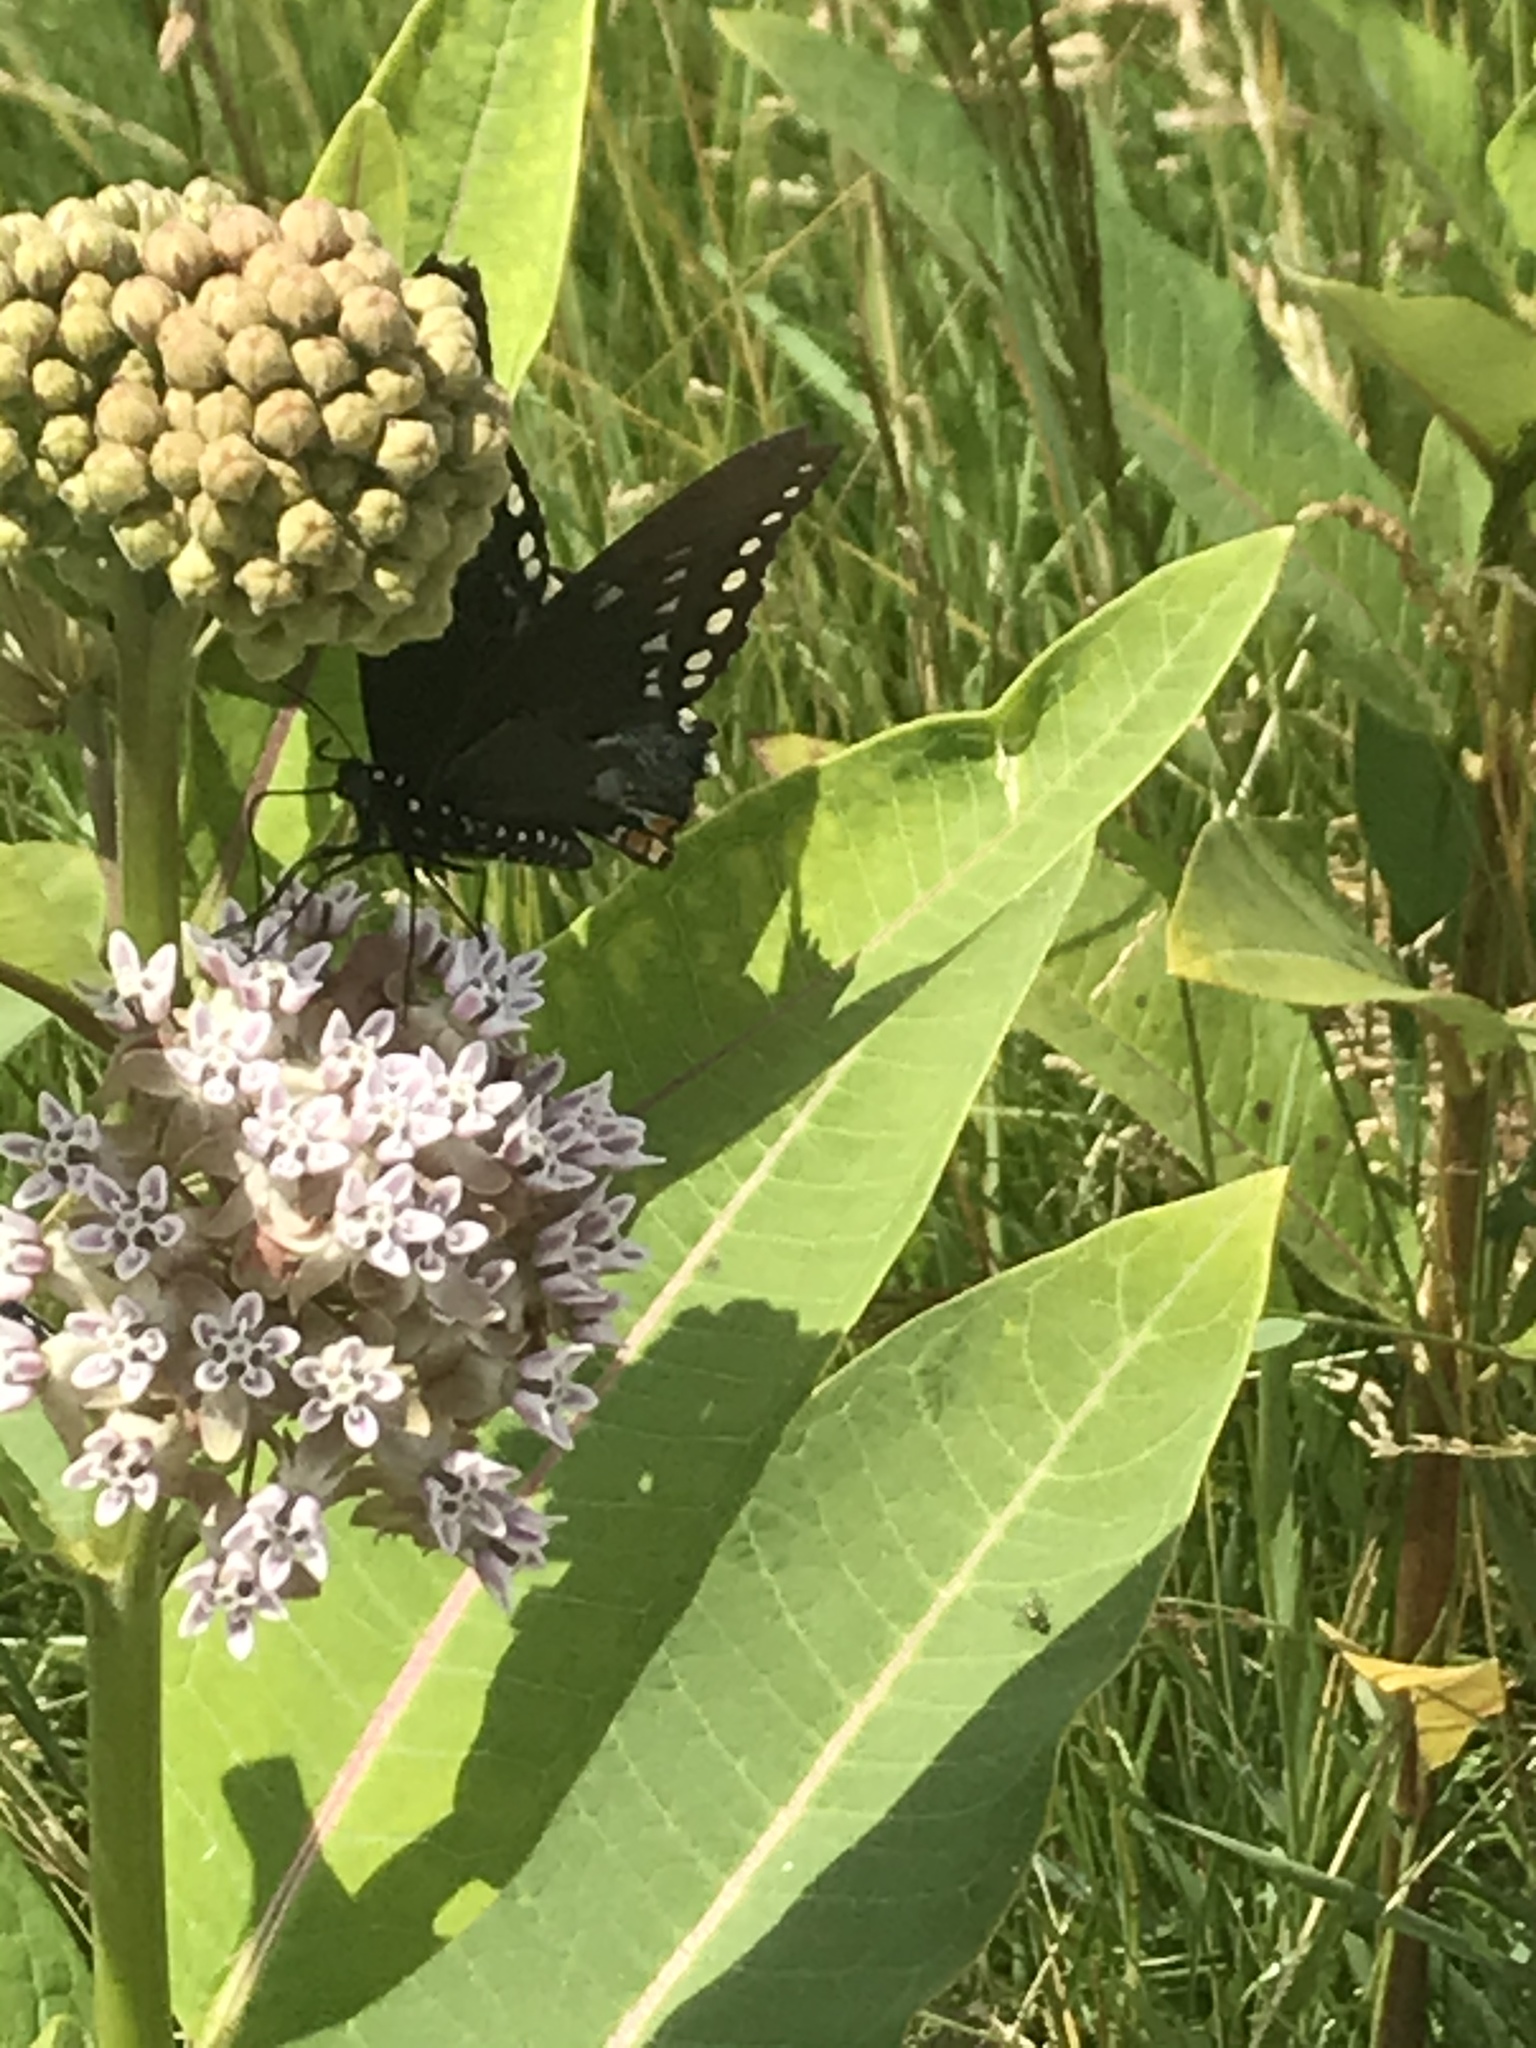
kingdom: Animalia
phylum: Arthropoda
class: Insecta
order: Lepidoptera
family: Papilionidae
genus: Papilio
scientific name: Papilio troilus
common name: Spicebush swallowtail
